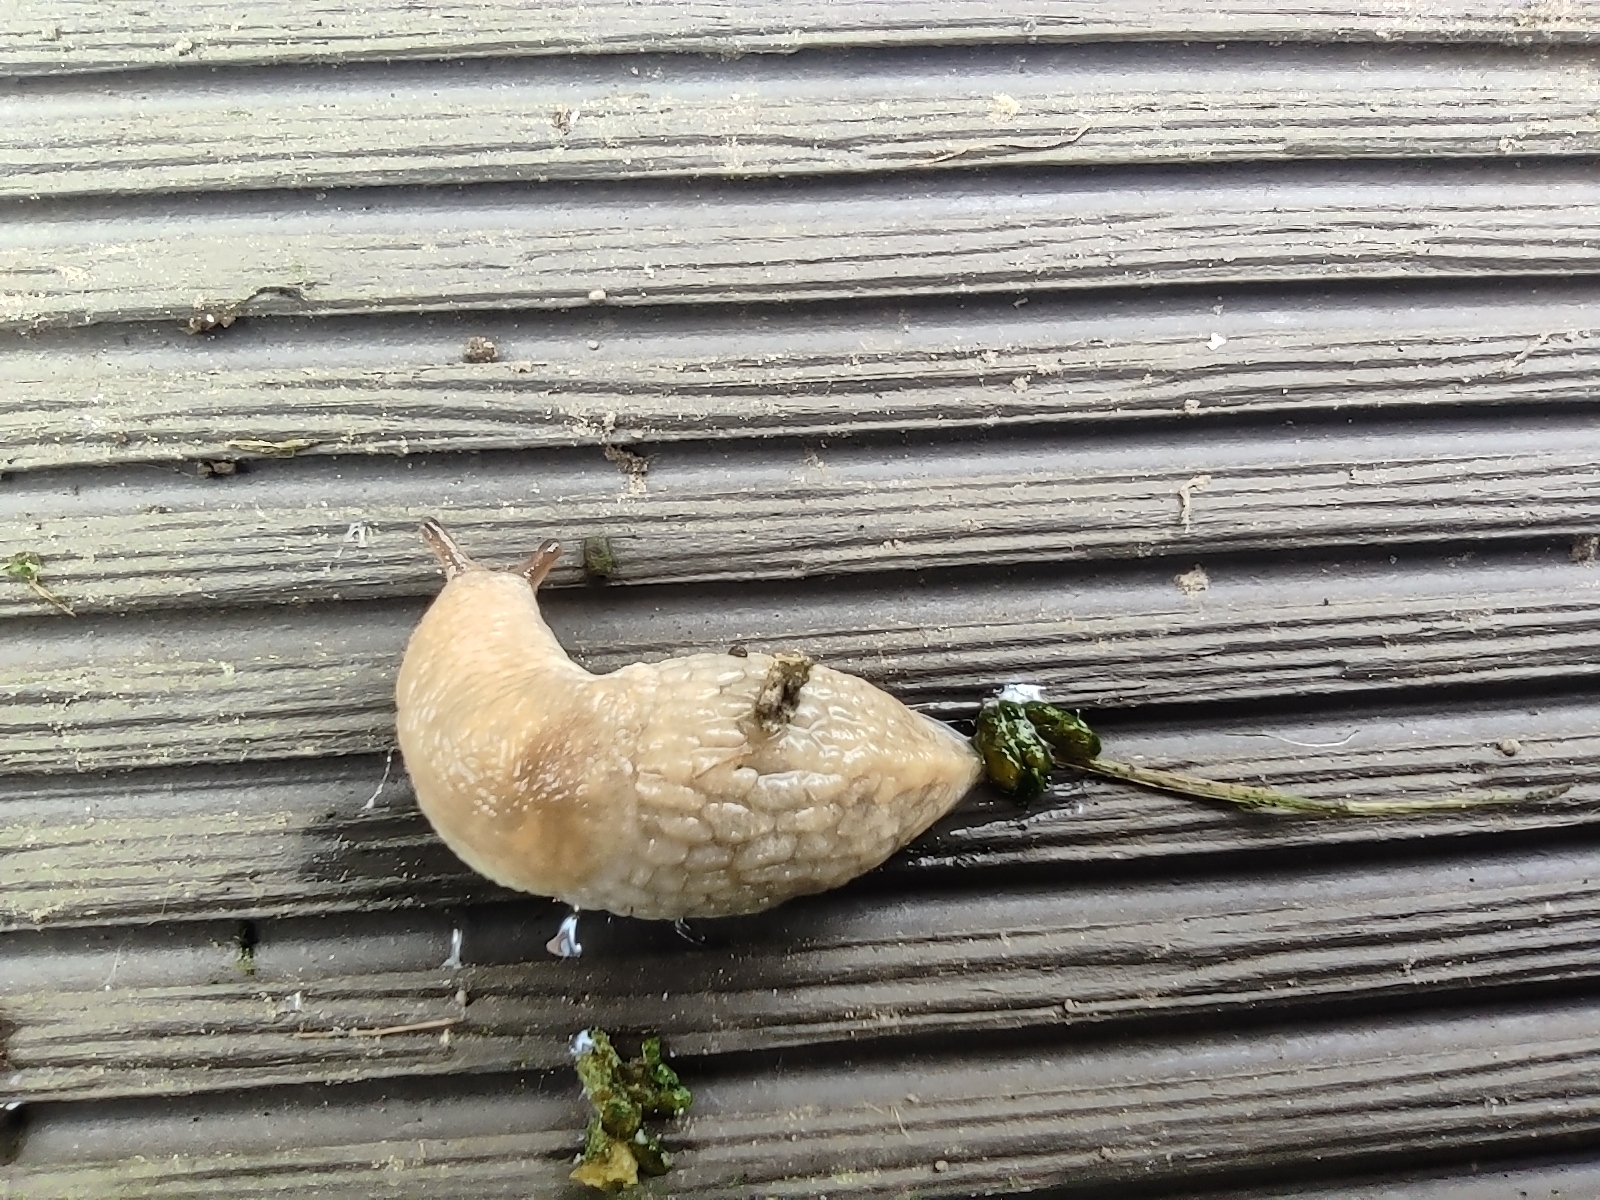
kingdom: Animalia
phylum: Mollusca
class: Gastropoda
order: Stylommatophora
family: Agriolimacidae
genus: Deroceras
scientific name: Deroceras reticulatum
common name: Gray field slug
